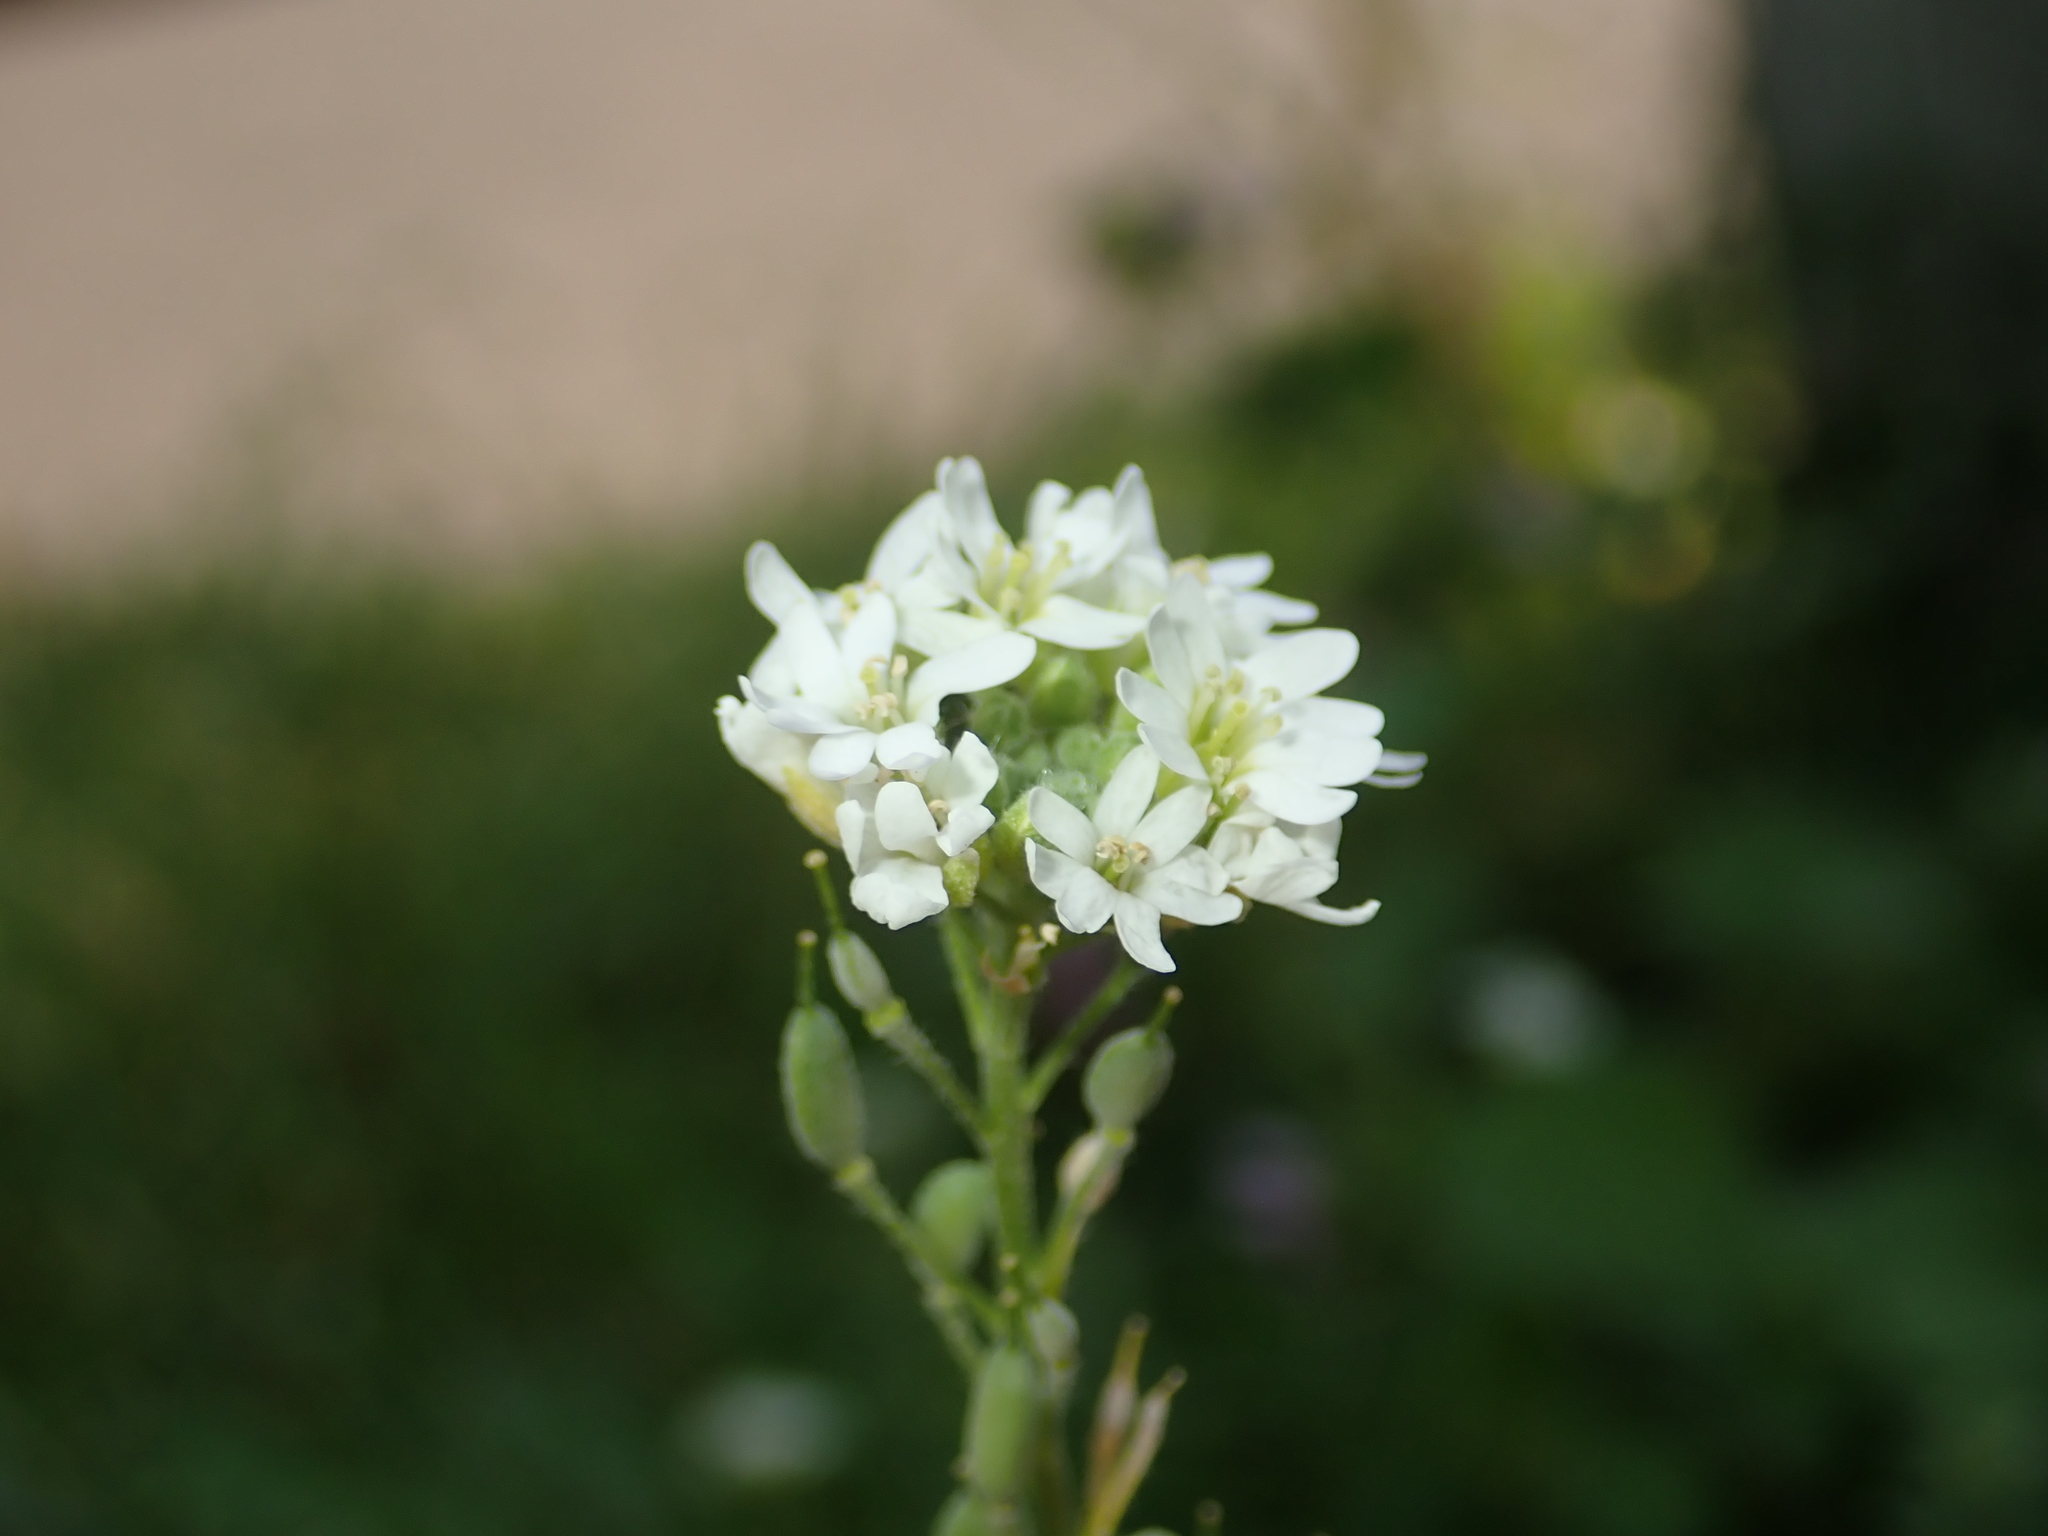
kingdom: Plantae
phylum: Tracheophyta
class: Magnoliopsida
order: Brassicales
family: Brassicaceae
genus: Berteroa
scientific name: Berteroa incana
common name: Hoary alison
